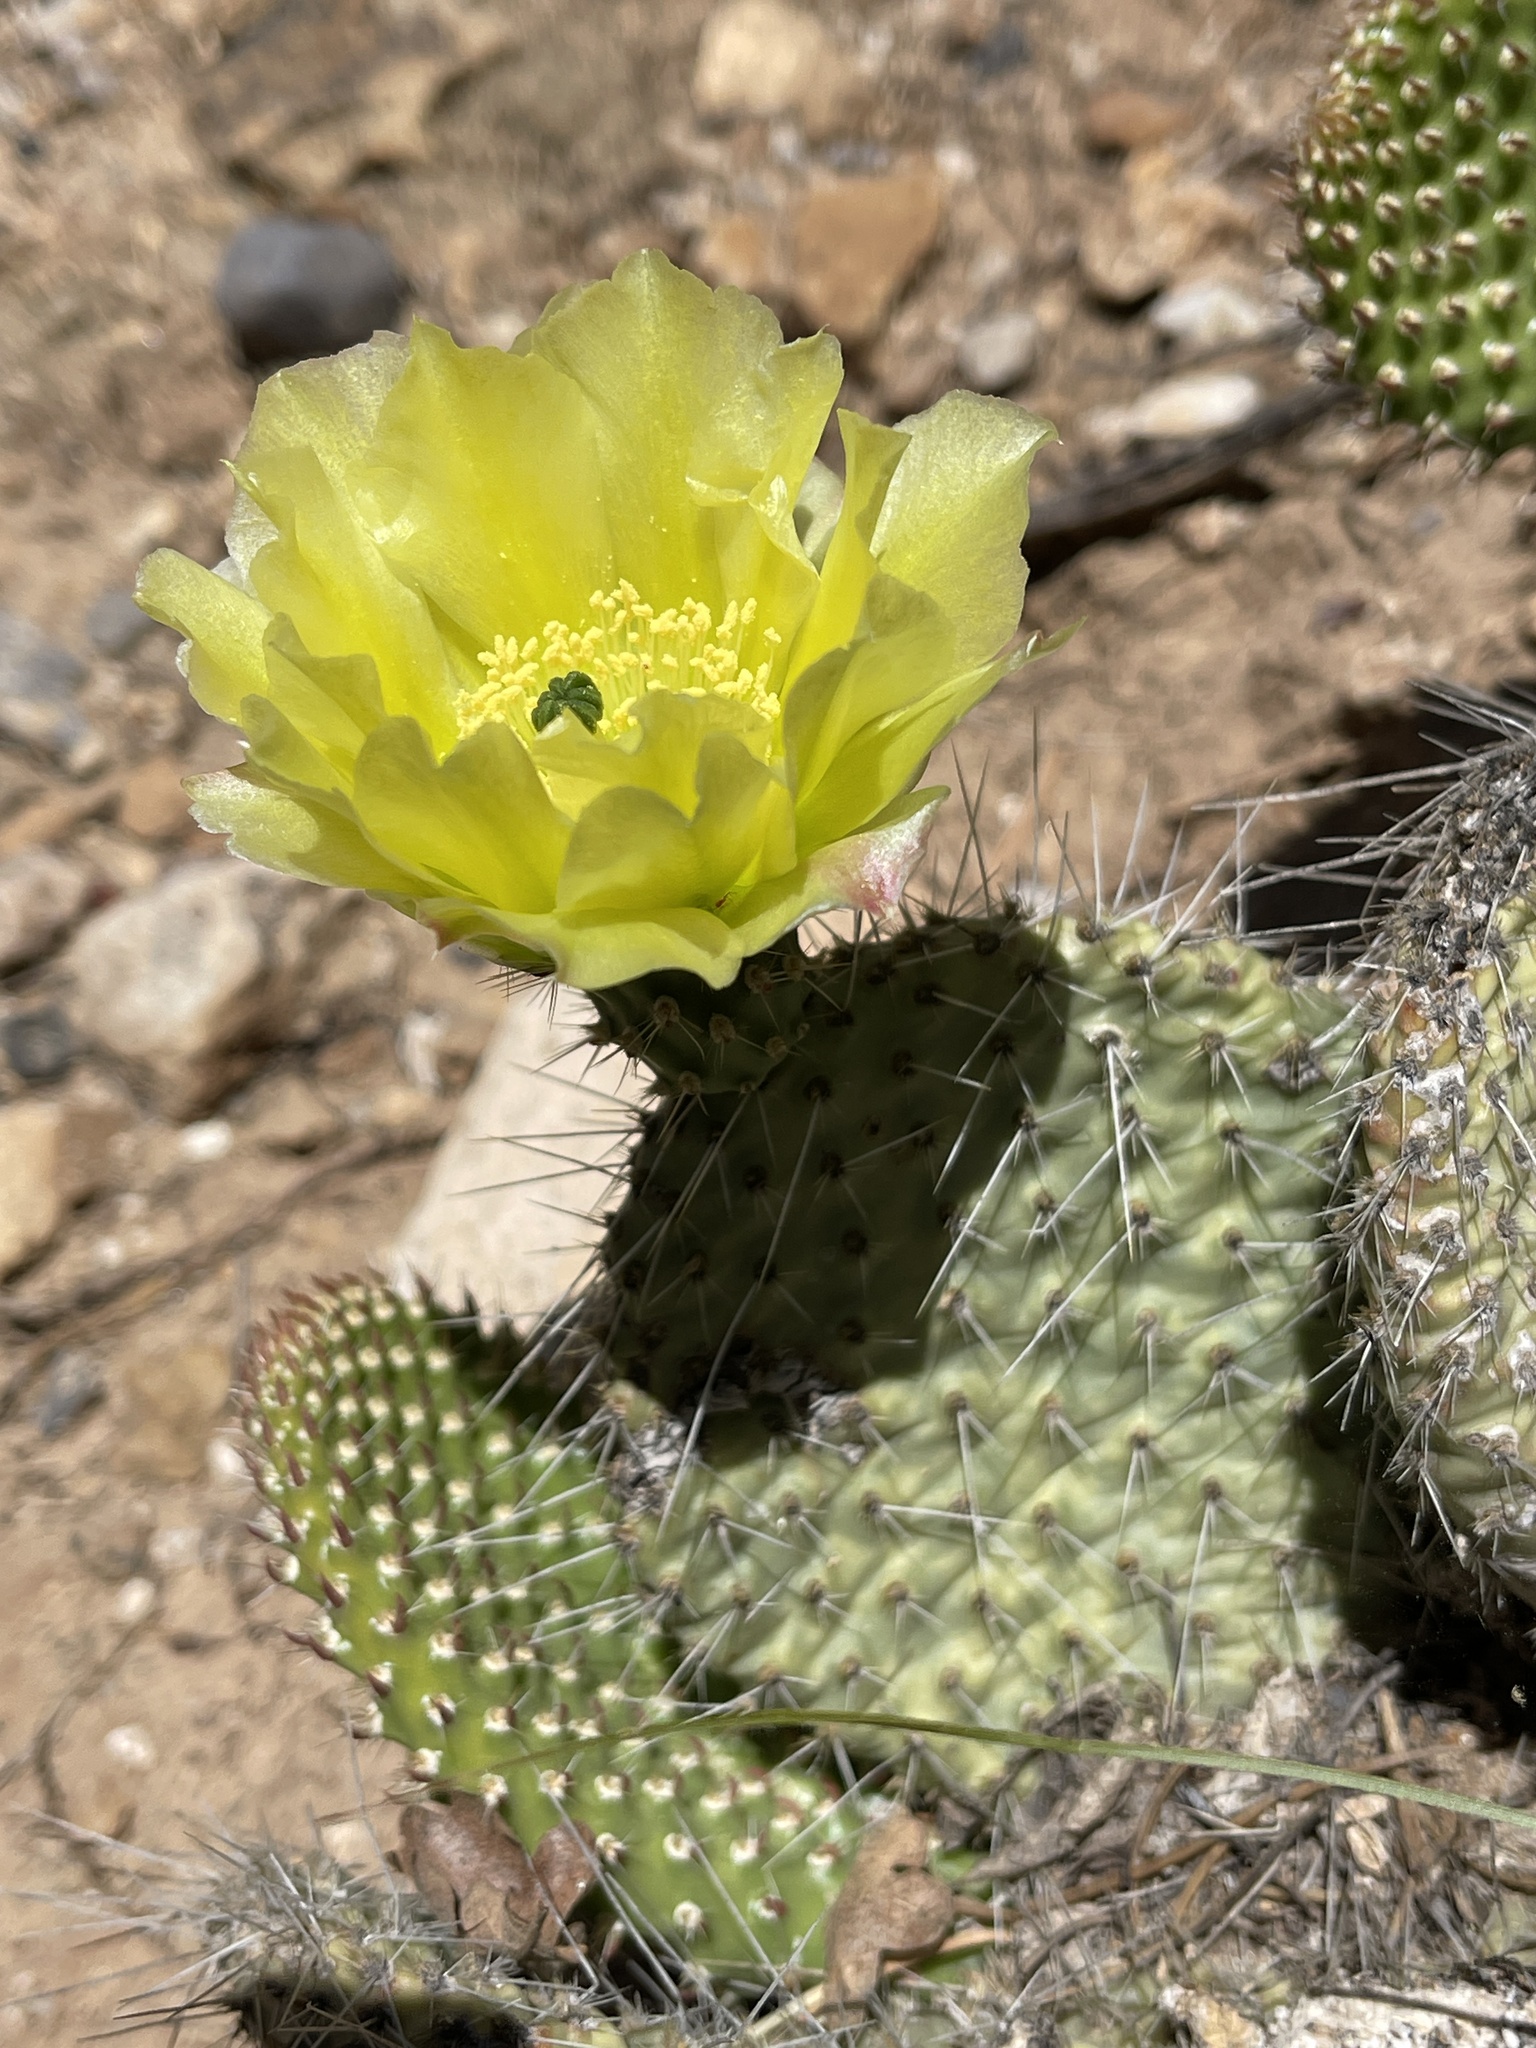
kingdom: Plantae
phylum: Tracheophyta
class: Magnoliopsida
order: Caryophyllales
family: Cactaceae
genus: Opuntia
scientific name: Opuntia polyacantha
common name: Plains prickly-pear
